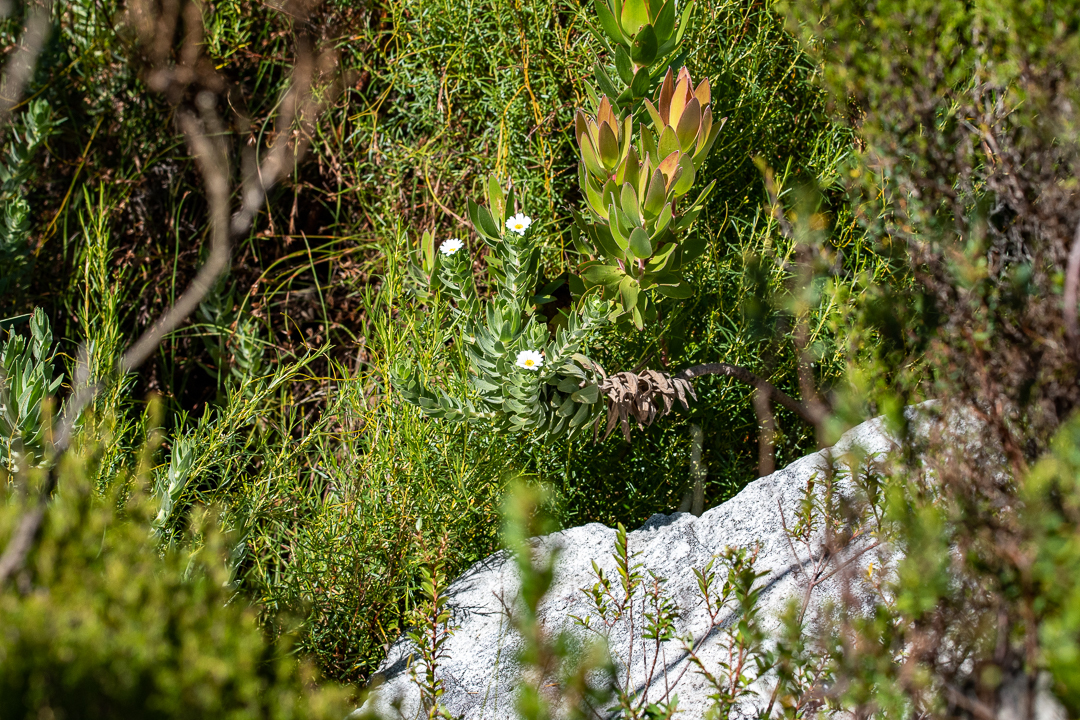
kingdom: Plantae
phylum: Tracheophyta
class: Magnoliopsida
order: Asterales
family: Asteraceae
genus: Osmitopsis
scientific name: Osmitopsis asteriscoides
